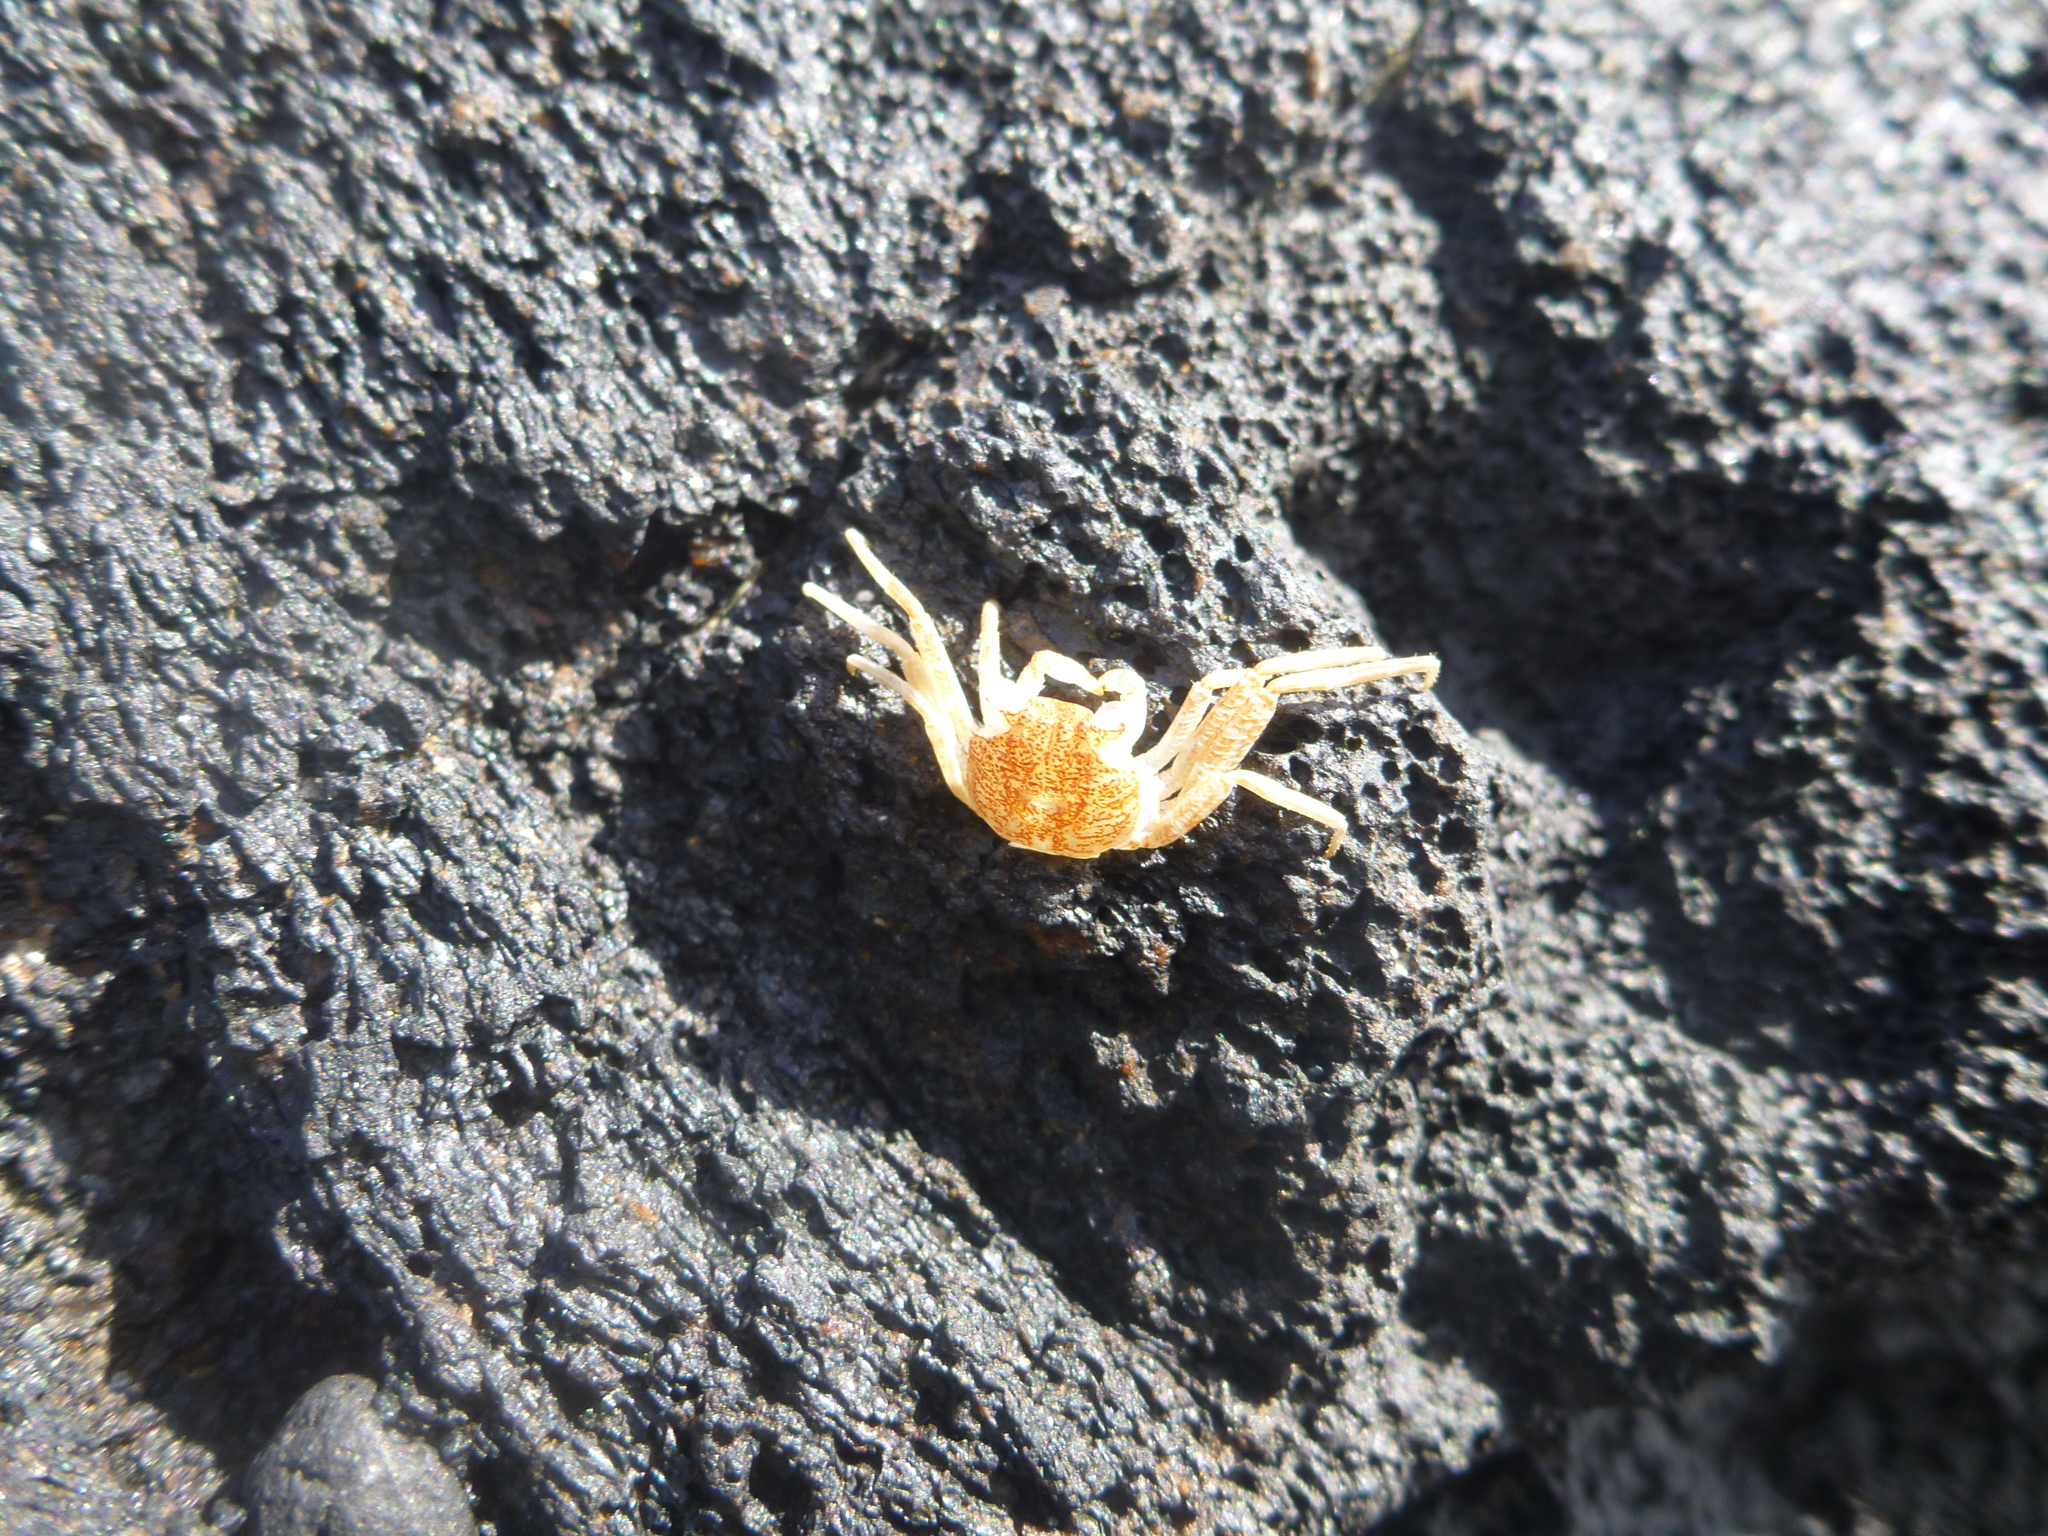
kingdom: Animalia
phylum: Arthropoda
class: Malacostraca
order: Decapoda
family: Grapsidae
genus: Grapsus
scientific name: Grapsus tenuicrustatus
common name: Natal lightfoot crab
